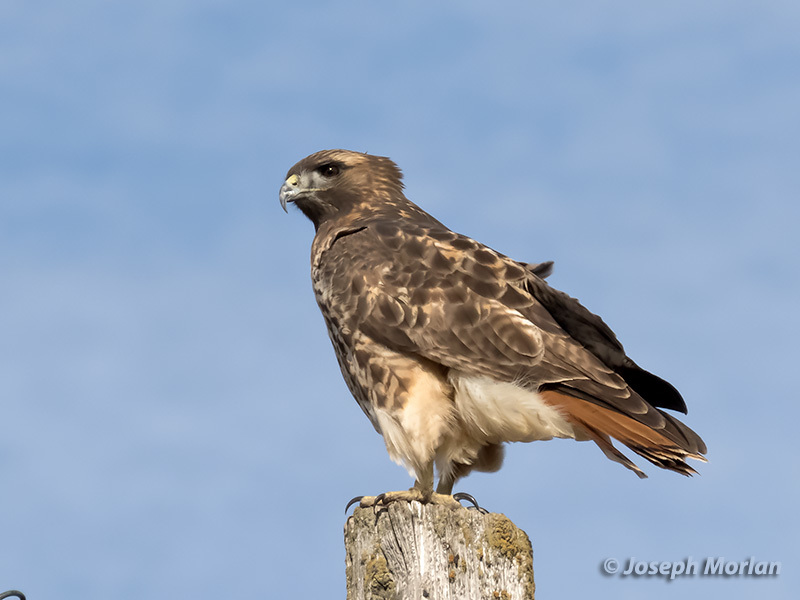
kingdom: Animalia
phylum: Chordata
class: Aves
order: Accipitriformes
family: Accipitridae
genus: Buteo
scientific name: Buteo jamaicensis
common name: Red-tailed hawk
